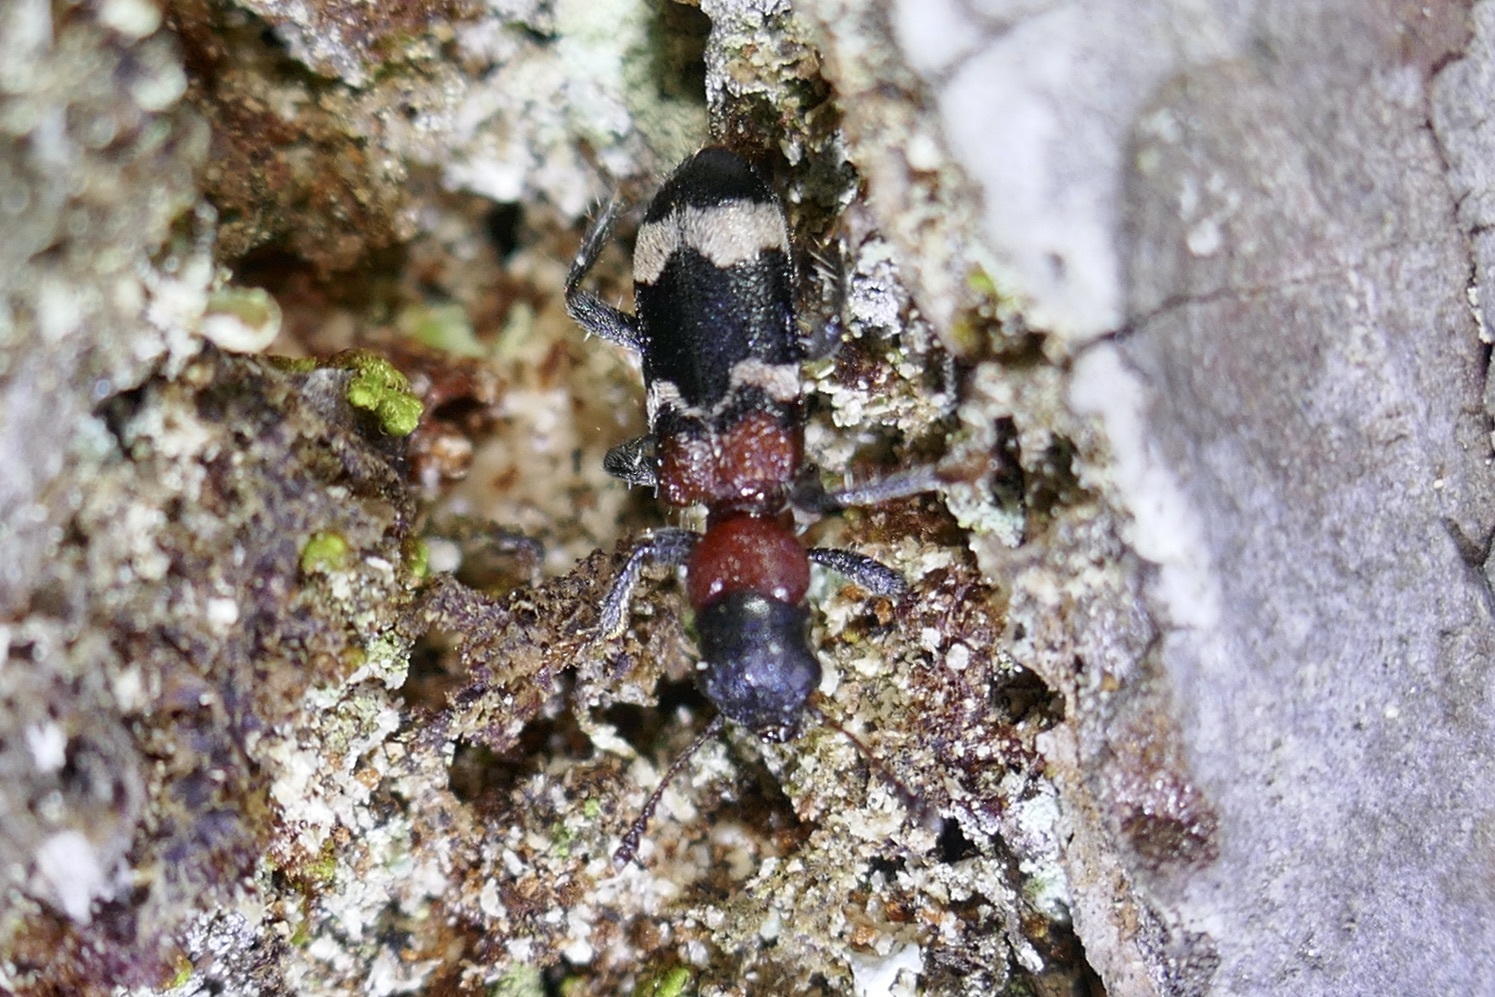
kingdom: Animalia
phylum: Arthropoda
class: Insecta
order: Coleoptera
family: Cleridae
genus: Thanasimus
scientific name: Thanasimus formicarius
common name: Ant beetle
